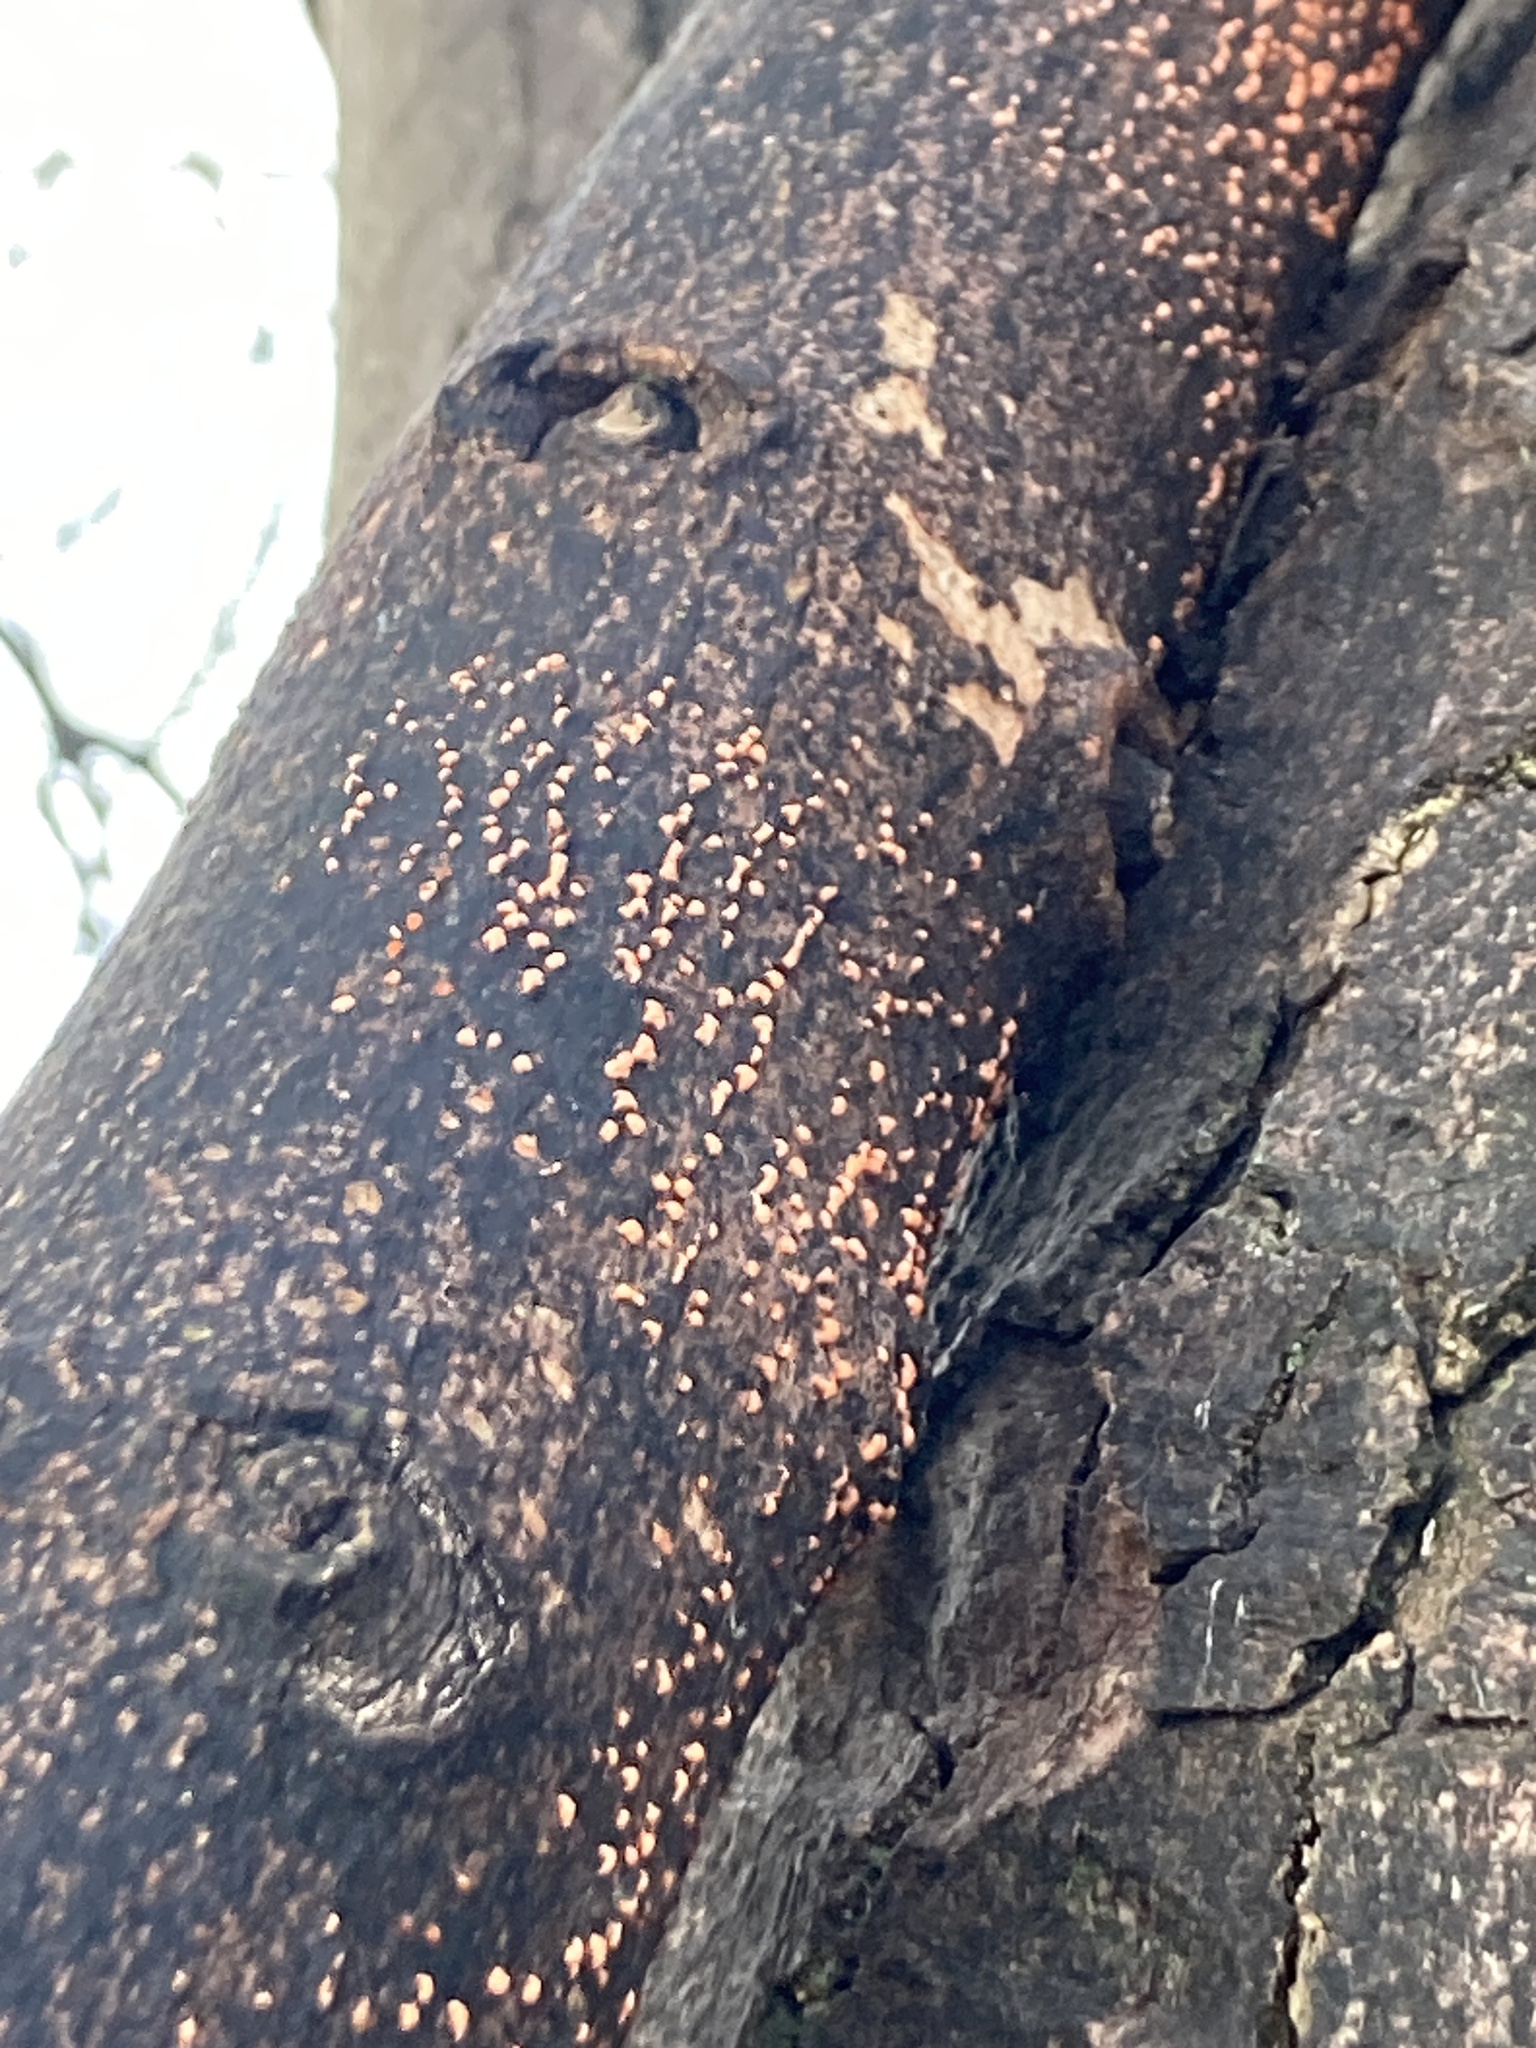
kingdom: Fungi
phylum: Ascomycota
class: Sordariomycetes
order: Hypocreales
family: Nectriaceae
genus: Nectria
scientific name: Nectria cinnabarina
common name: Coral spot
